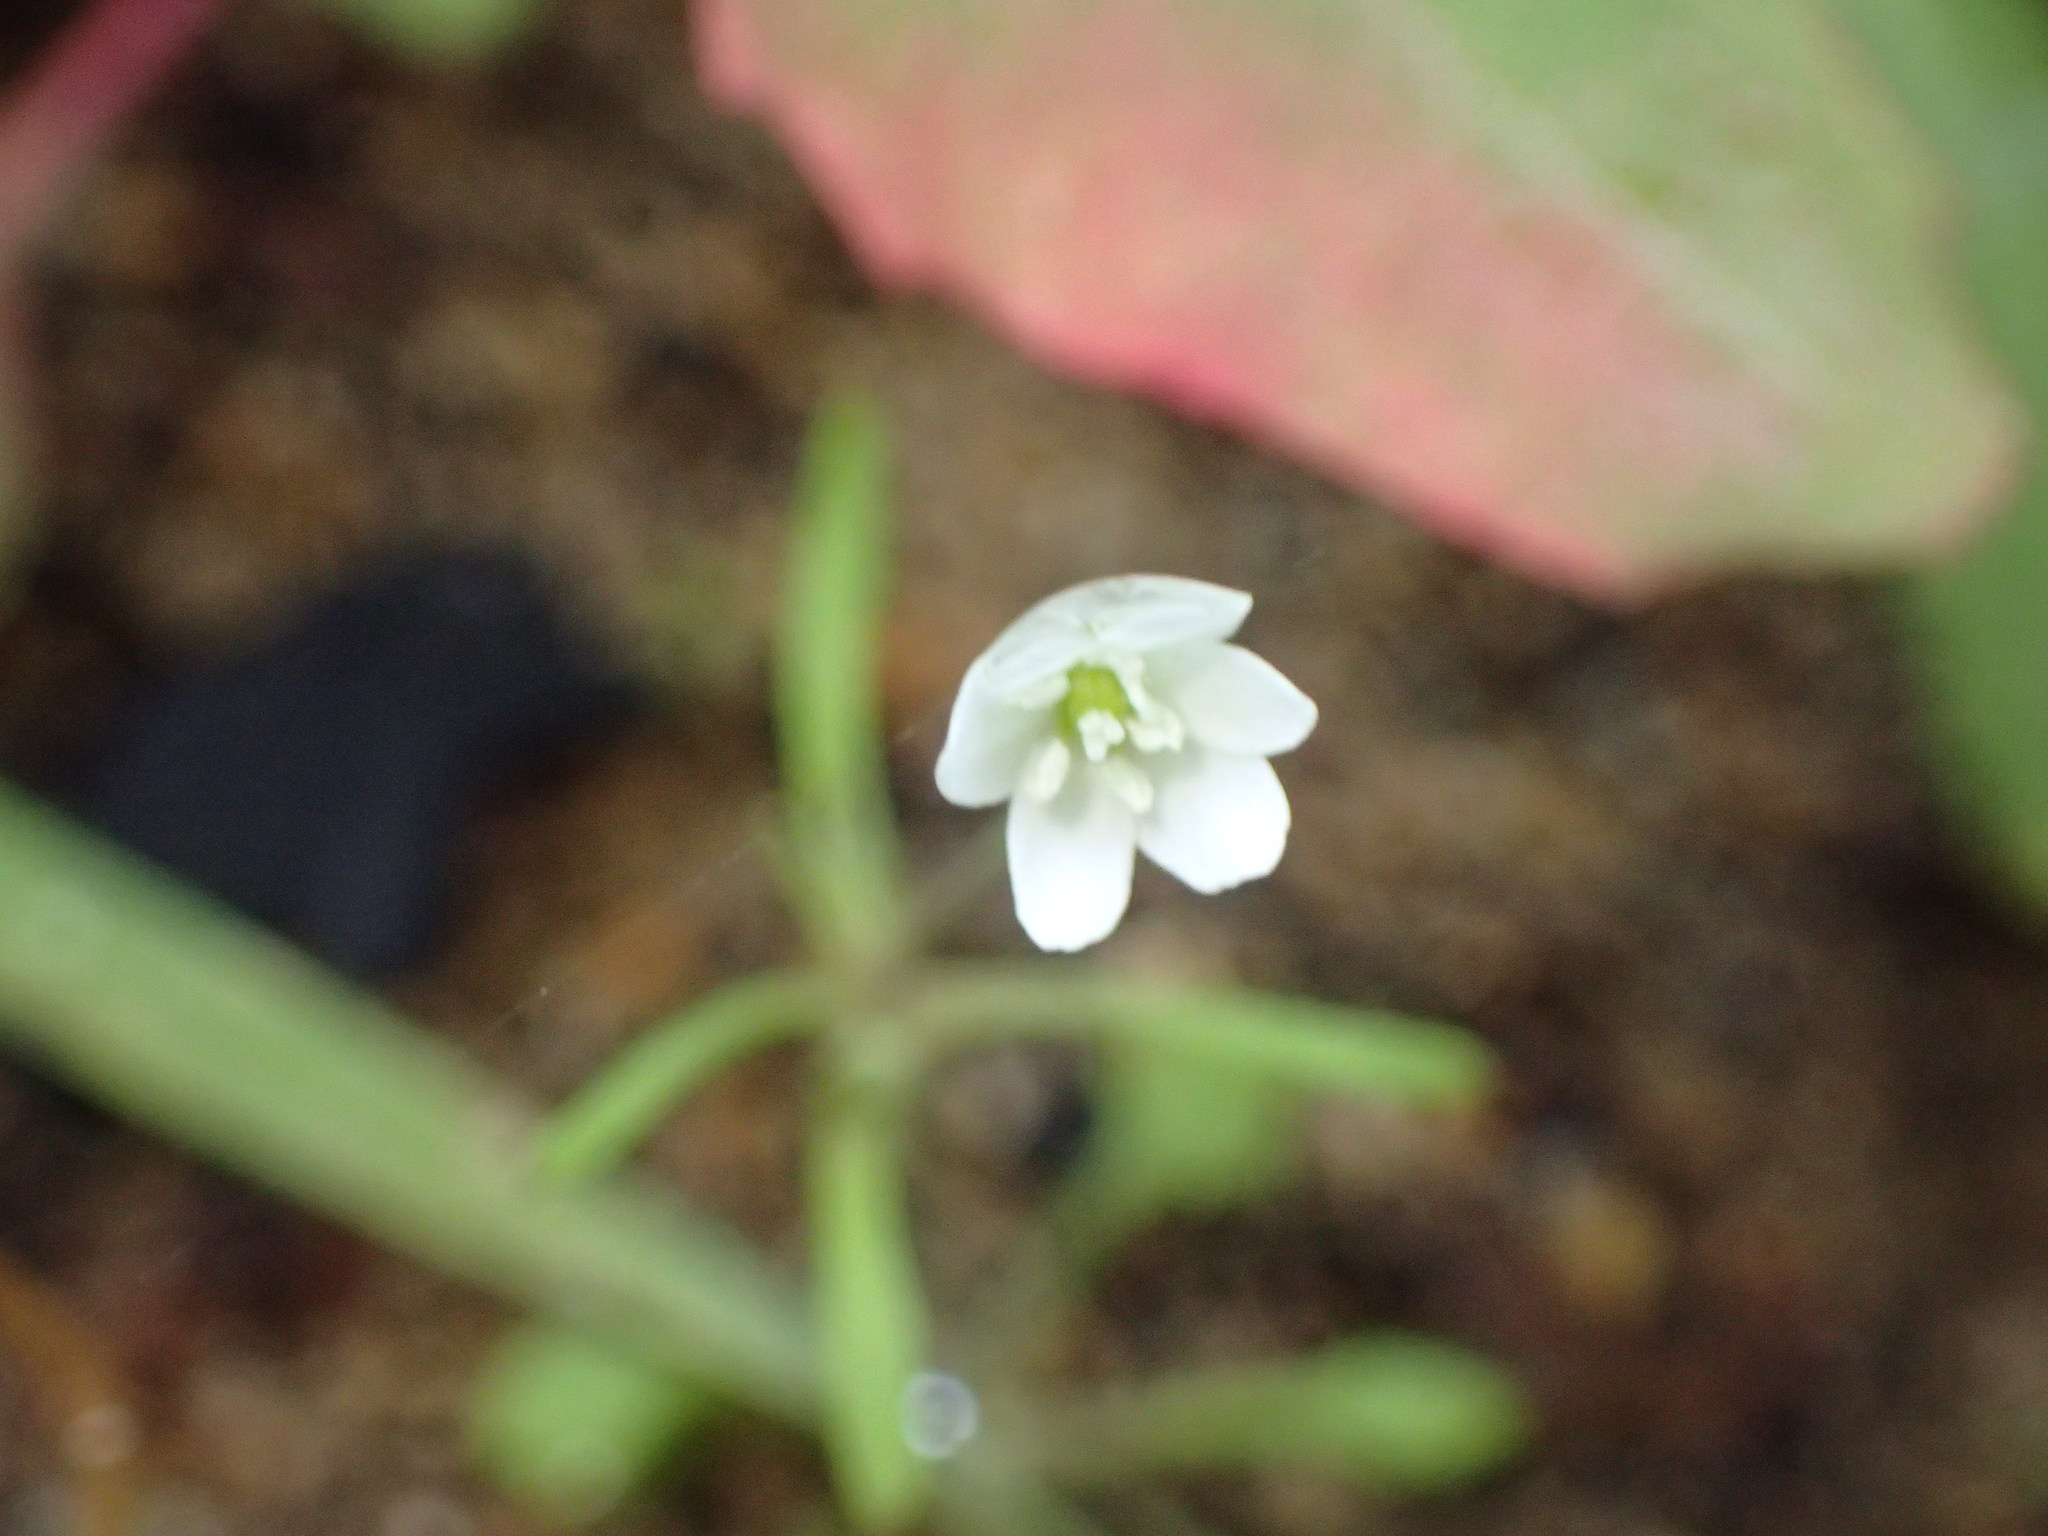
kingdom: Plantae
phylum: Tracheophyta
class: Magnoliopsida
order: Ranunculales
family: Papaveraceae
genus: Meconella
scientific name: Meconella denticulata
